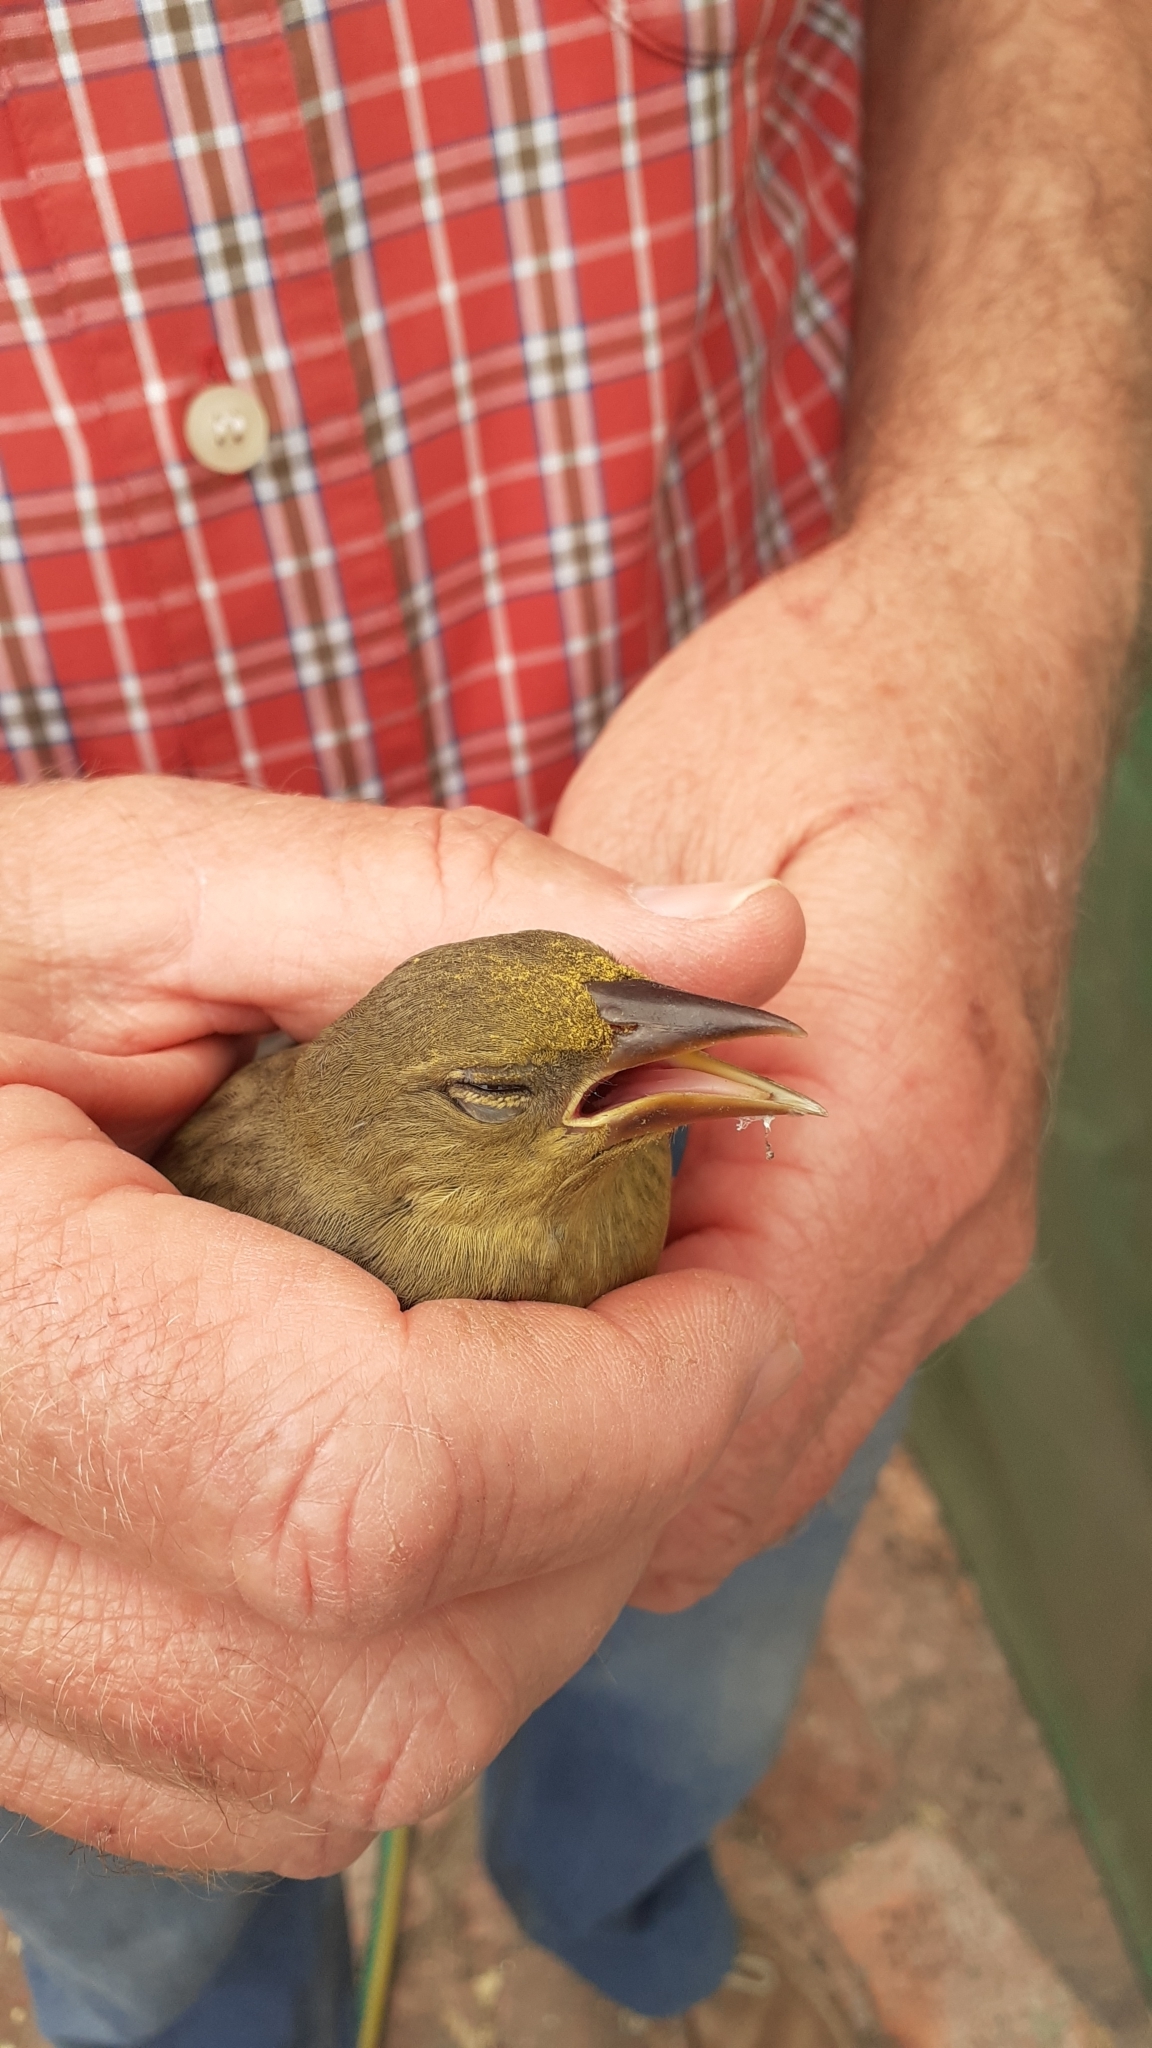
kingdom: Animalia
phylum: Chordata
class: Aves
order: Passeriformes
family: Ploceidae
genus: Ploceus
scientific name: Ploceus capensis
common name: Cape weaver
